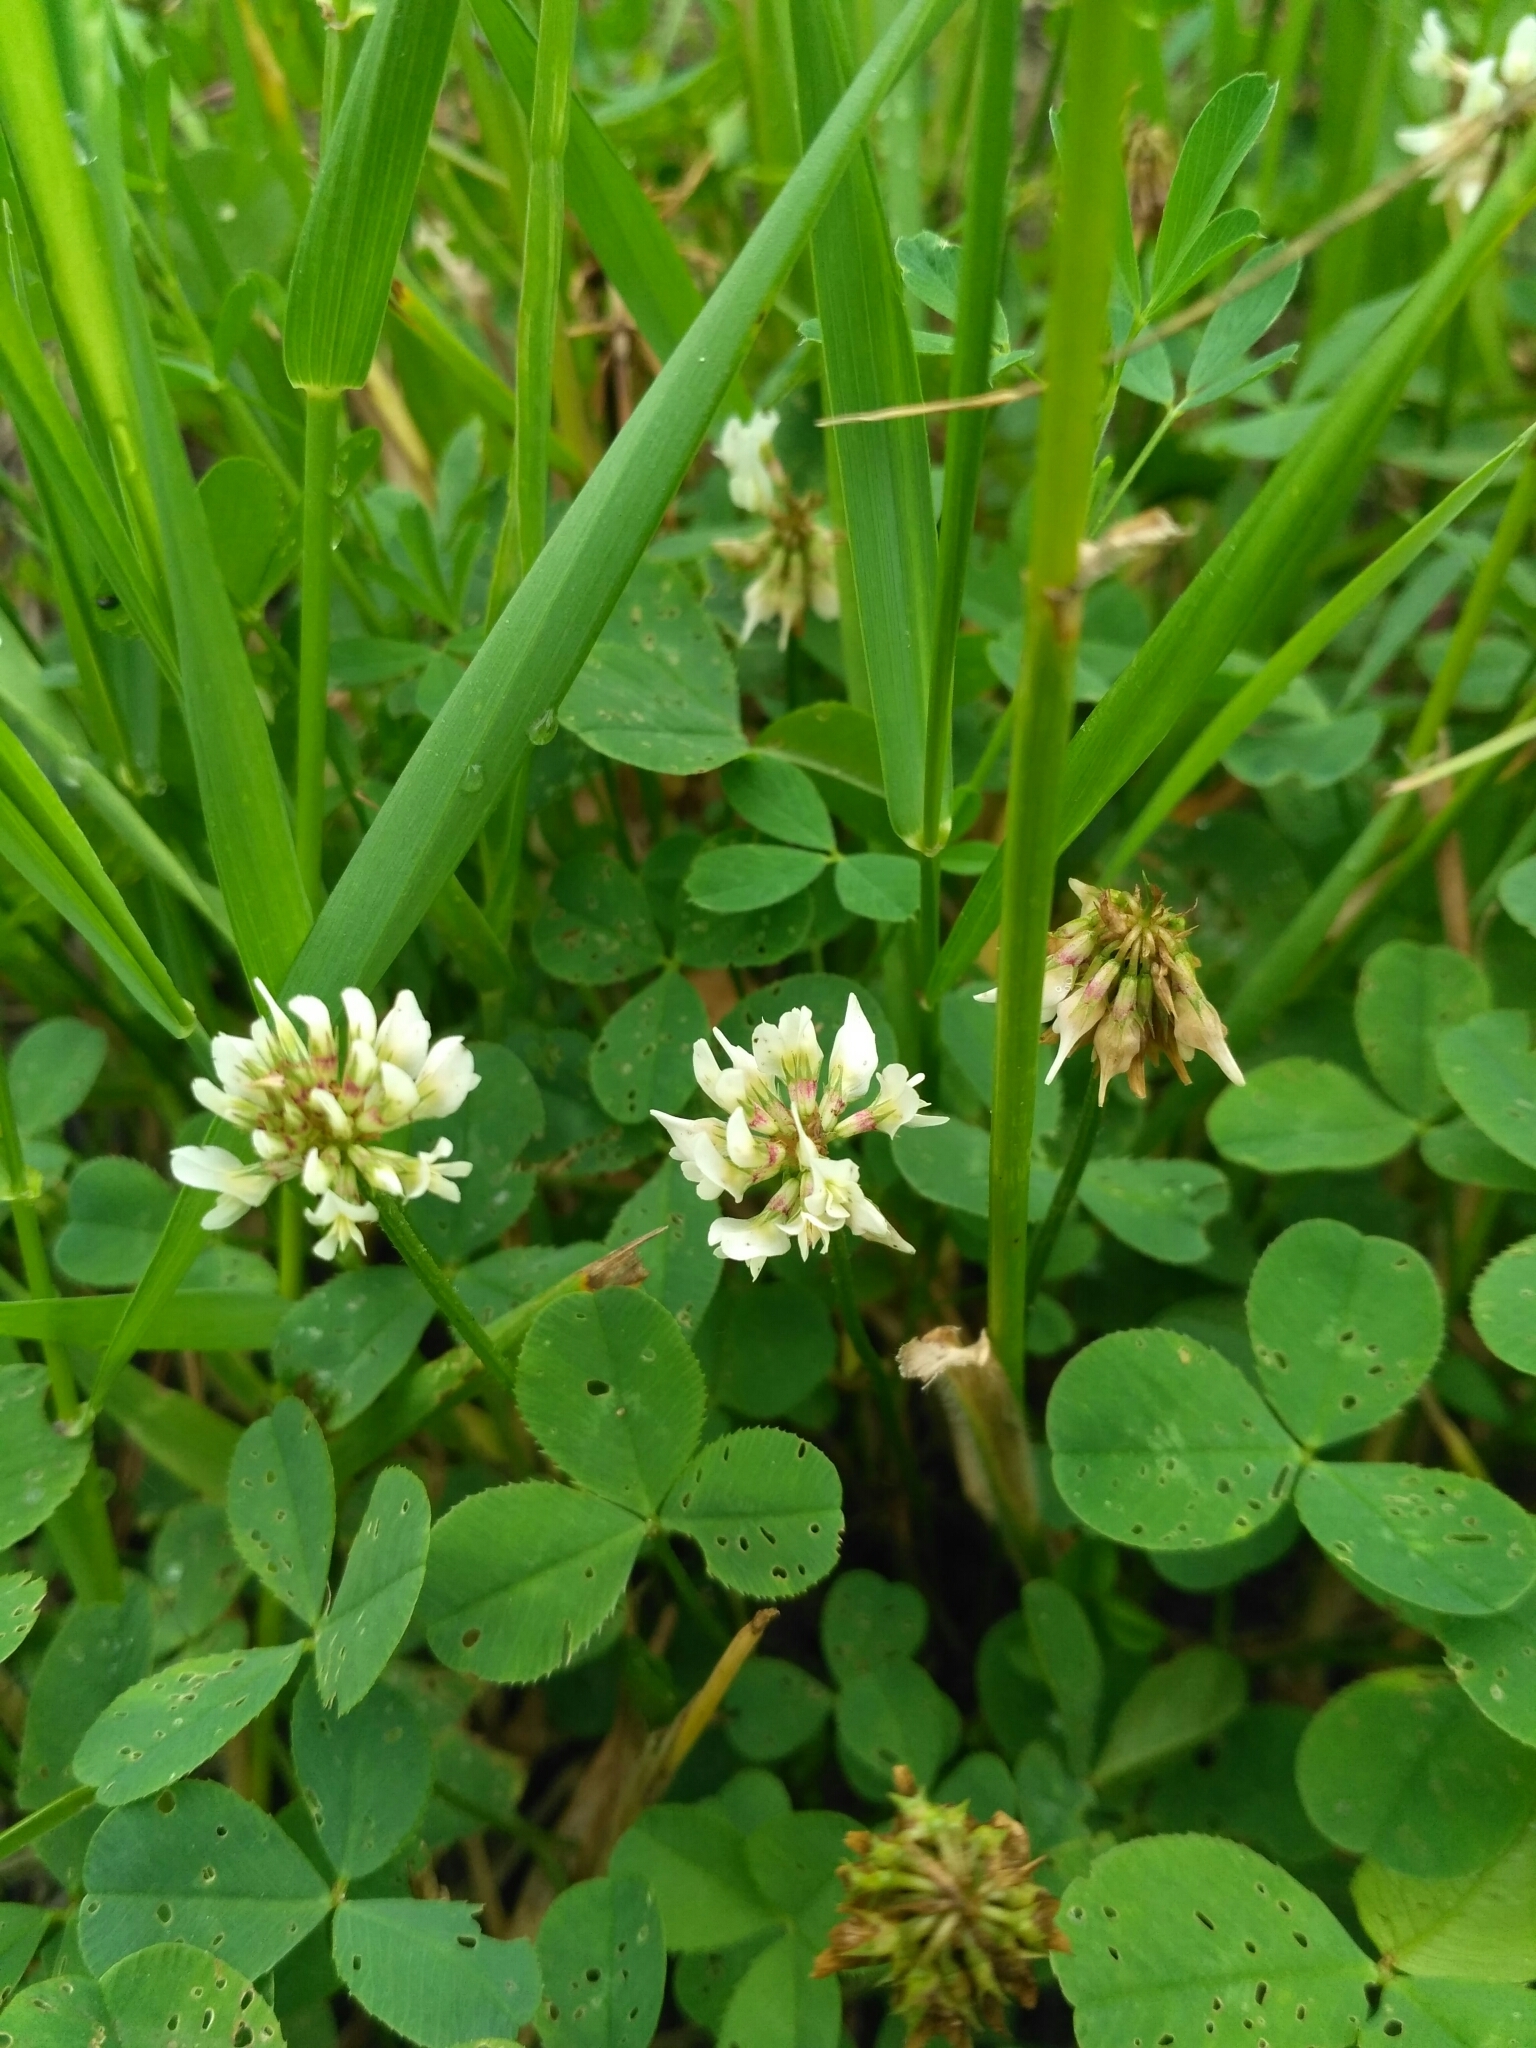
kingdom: Plantae
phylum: Tracheophyta
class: Magnoliopsida
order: Fabales
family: Fabaceae
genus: Trifolium
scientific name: Trifolium repens
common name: White clover
